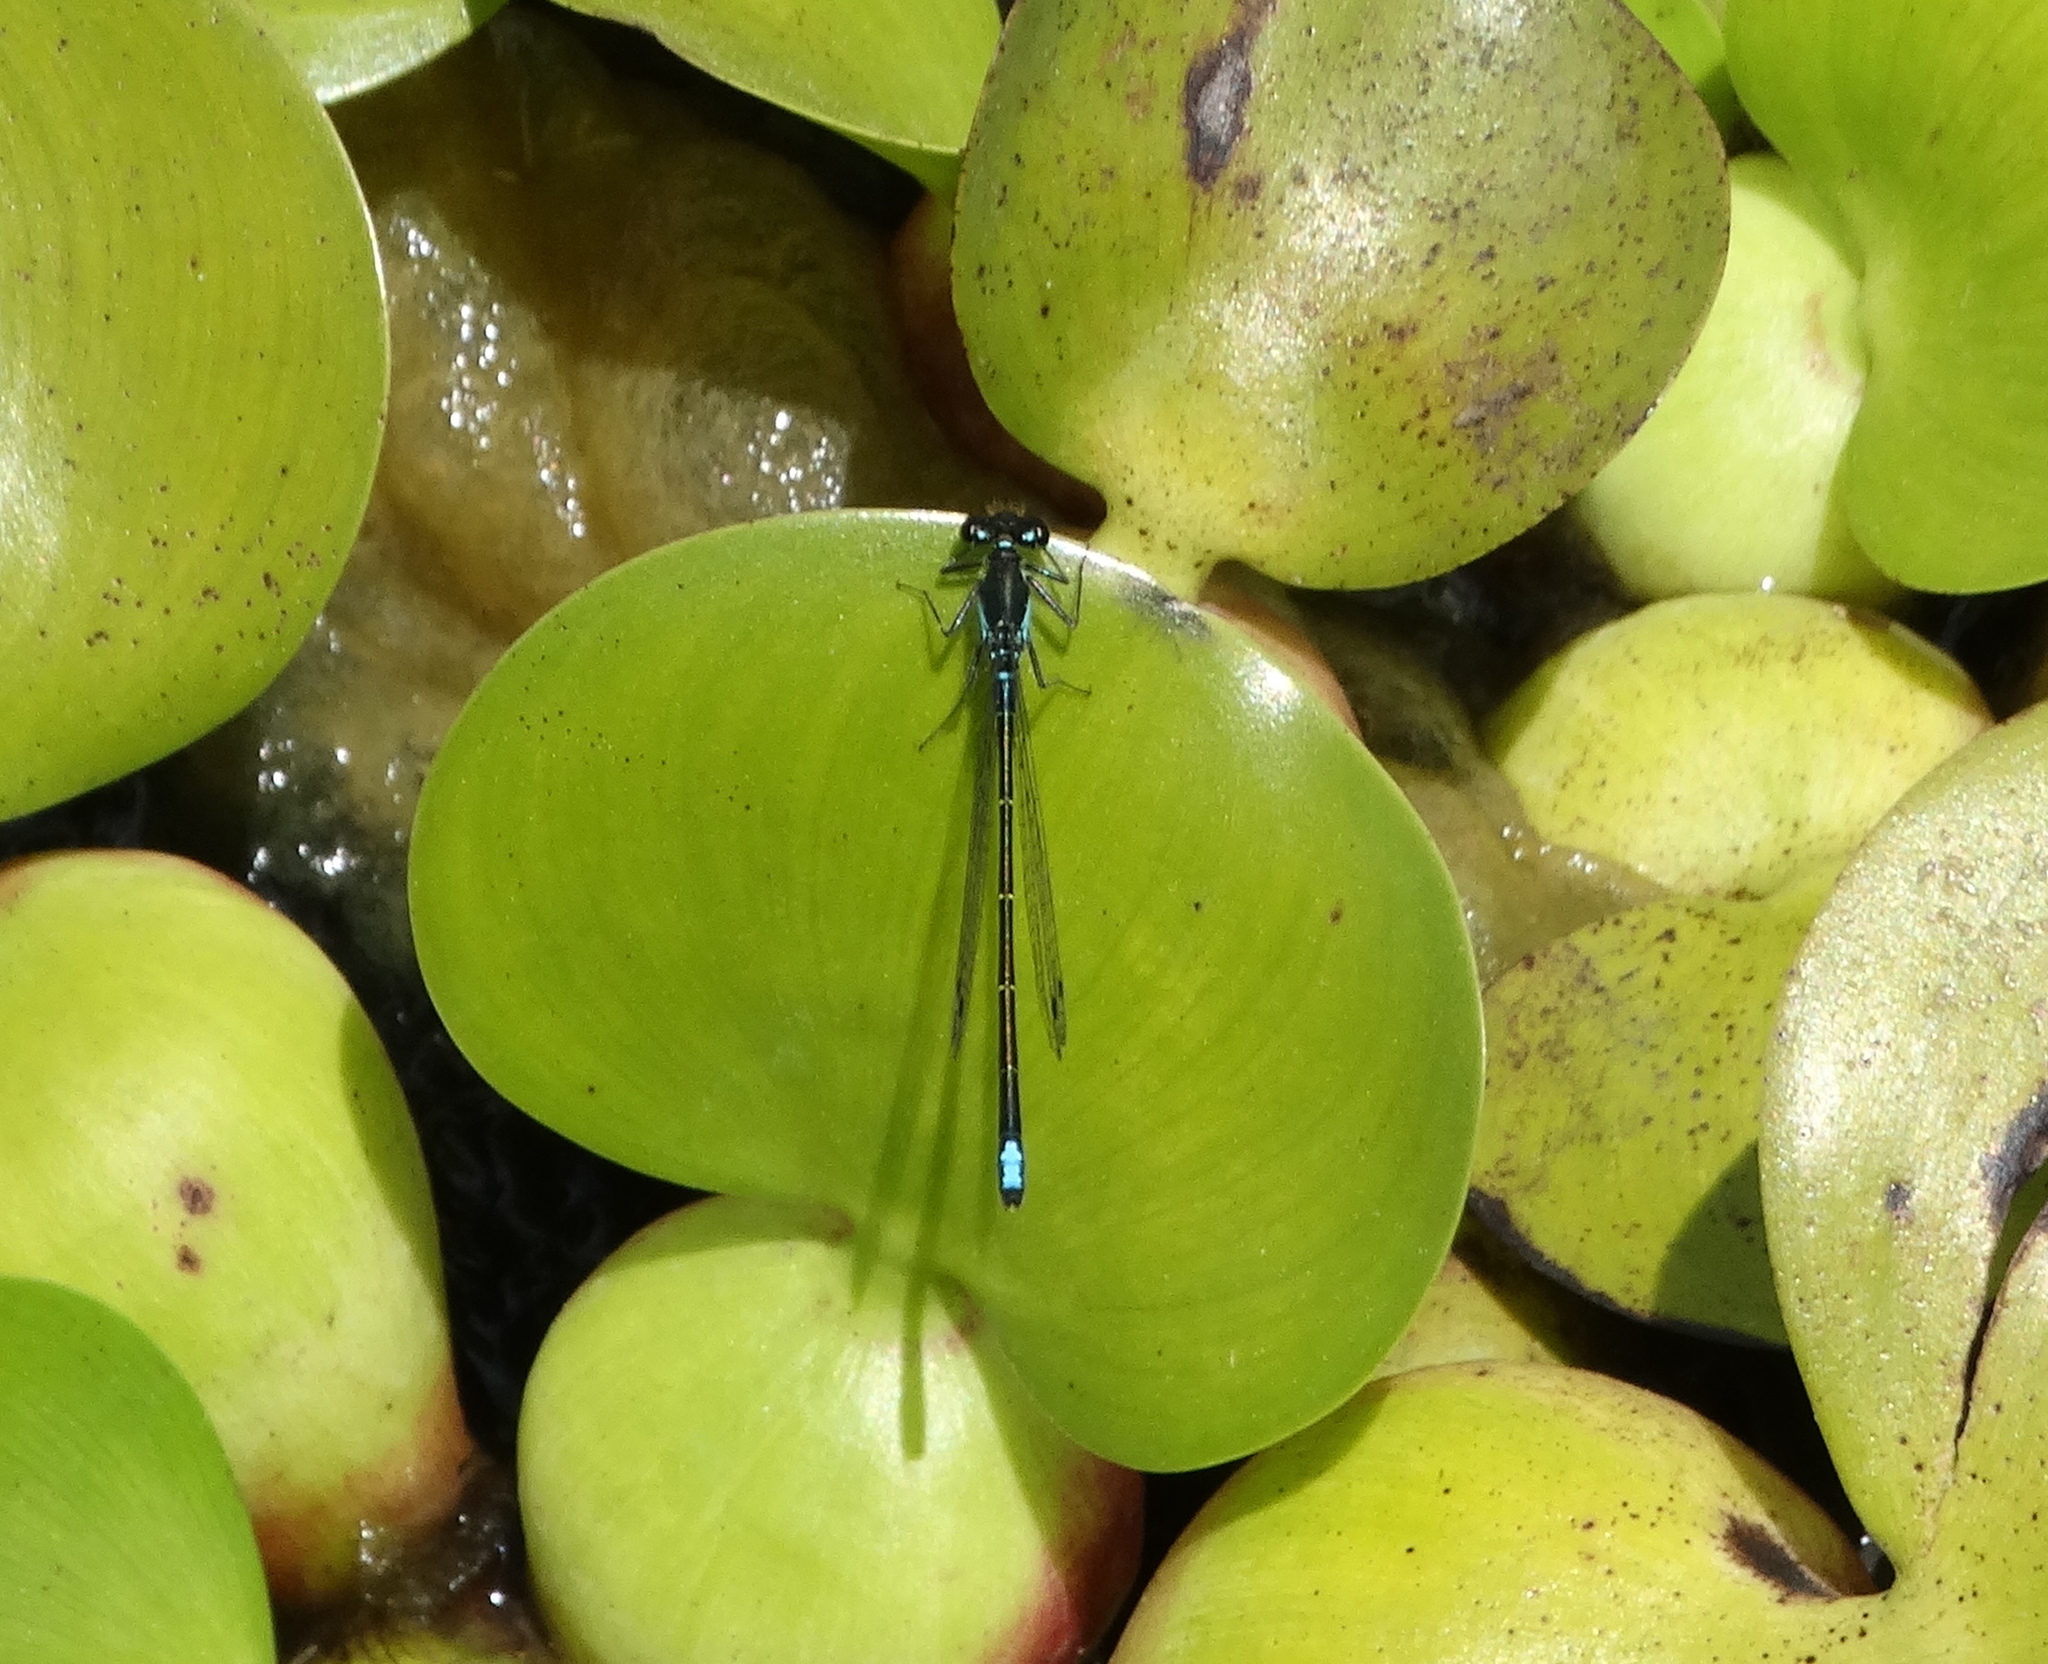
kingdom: Animalia
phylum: Arthropoda
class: Insecta
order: Odonata
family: Coenagrionidae
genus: Ischnura
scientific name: Ischnura denticollis
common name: Black-fronted forktail
